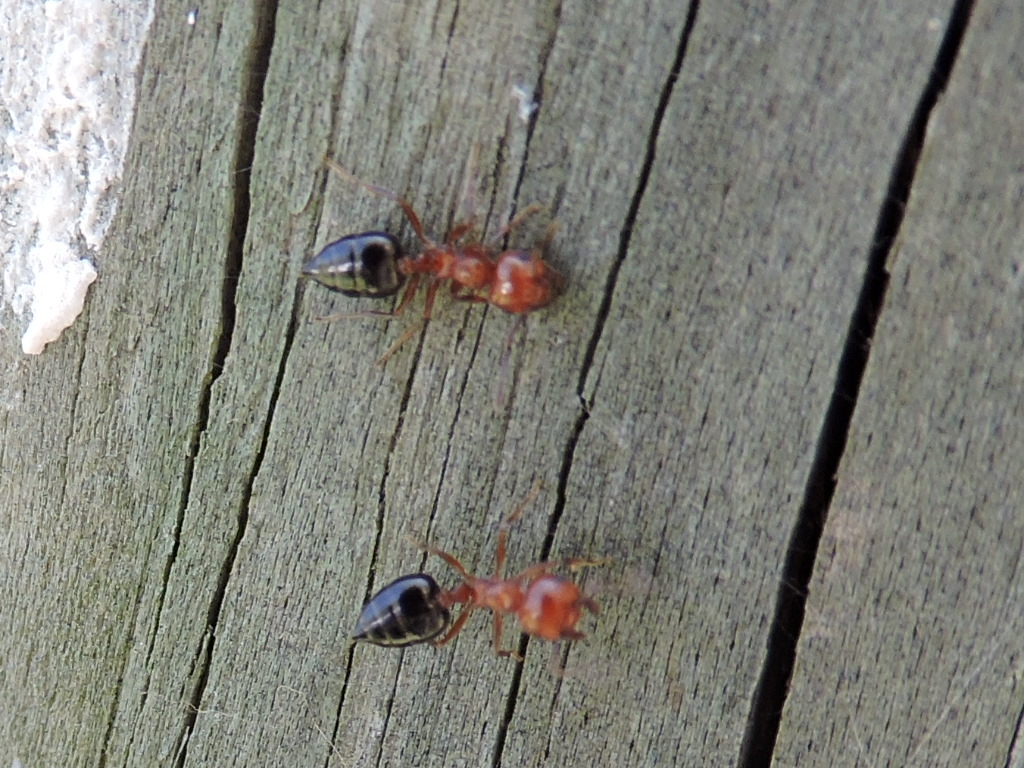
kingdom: Animalia
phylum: Arthropoda
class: Insecta
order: Hymenoptera
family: Formicidae
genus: Crematogaster
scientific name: Crematogaster laeviuscula
